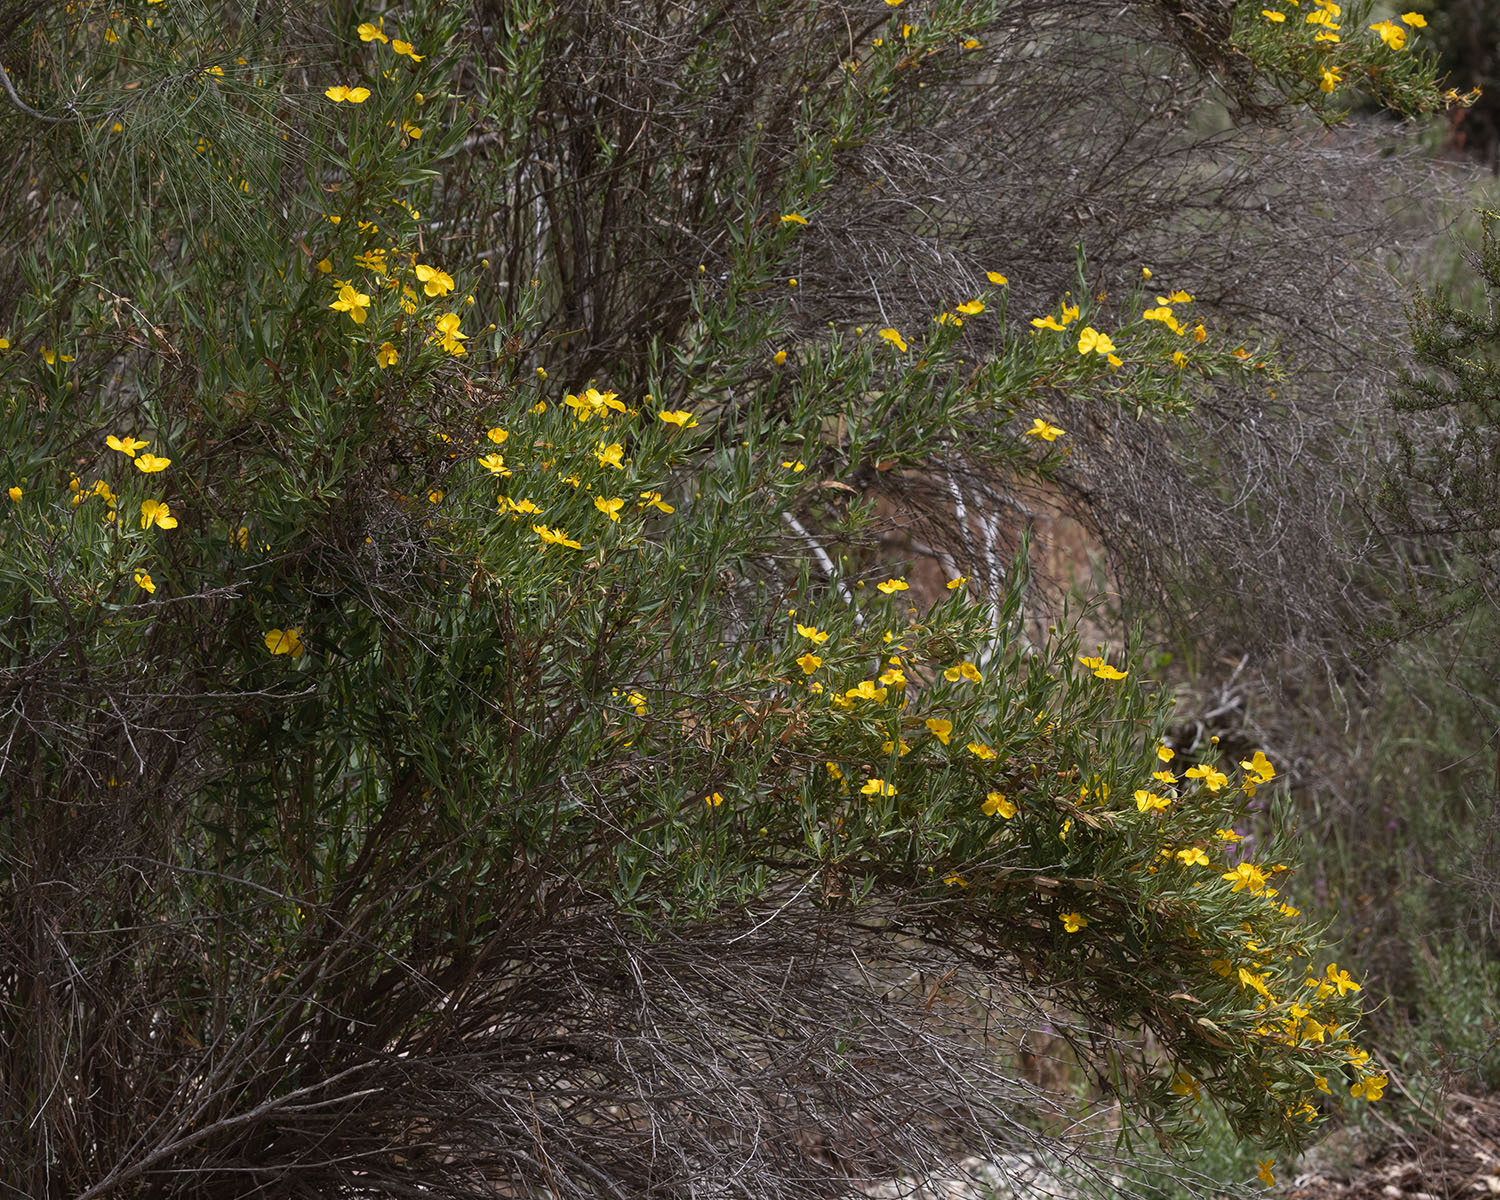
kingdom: Plantae
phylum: Tracheophyta
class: Magnoliopsida
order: Ranunculales
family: Papaveraceae
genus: Dendromecon
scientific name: Dendromecon rigida
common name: Tree poppy
